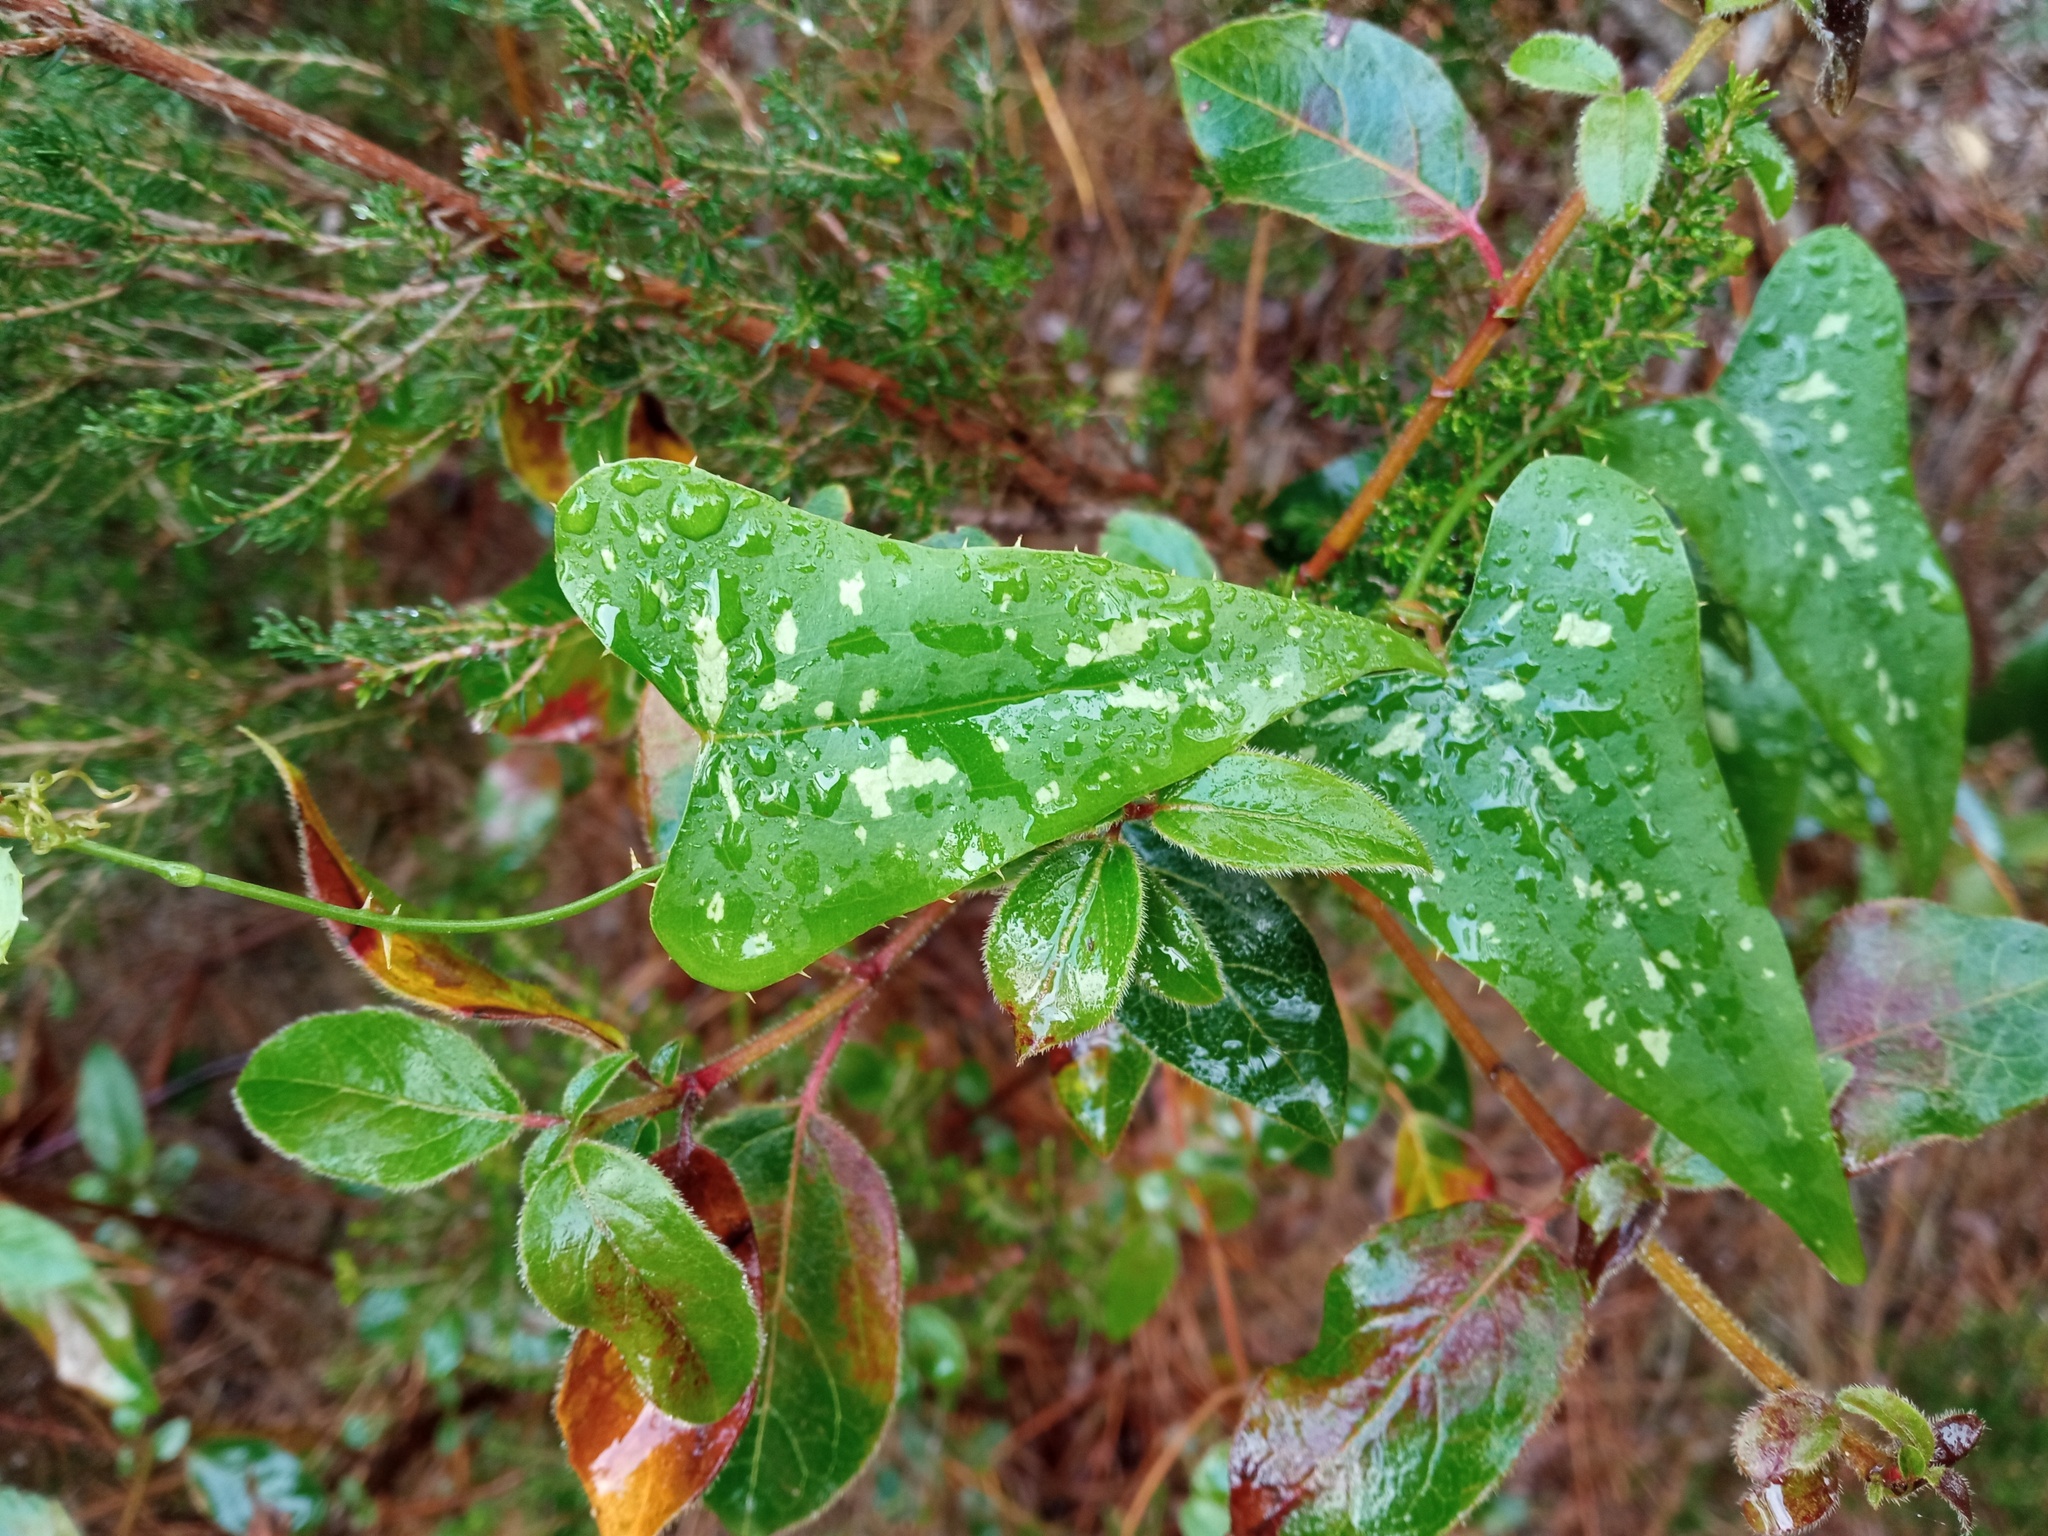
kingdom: Plantae
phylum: Tracheophyta
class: Liliopsida
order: Liliales
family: Smilacaceae
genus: Smilax
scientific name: Smilax aspera
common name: Common smilax
